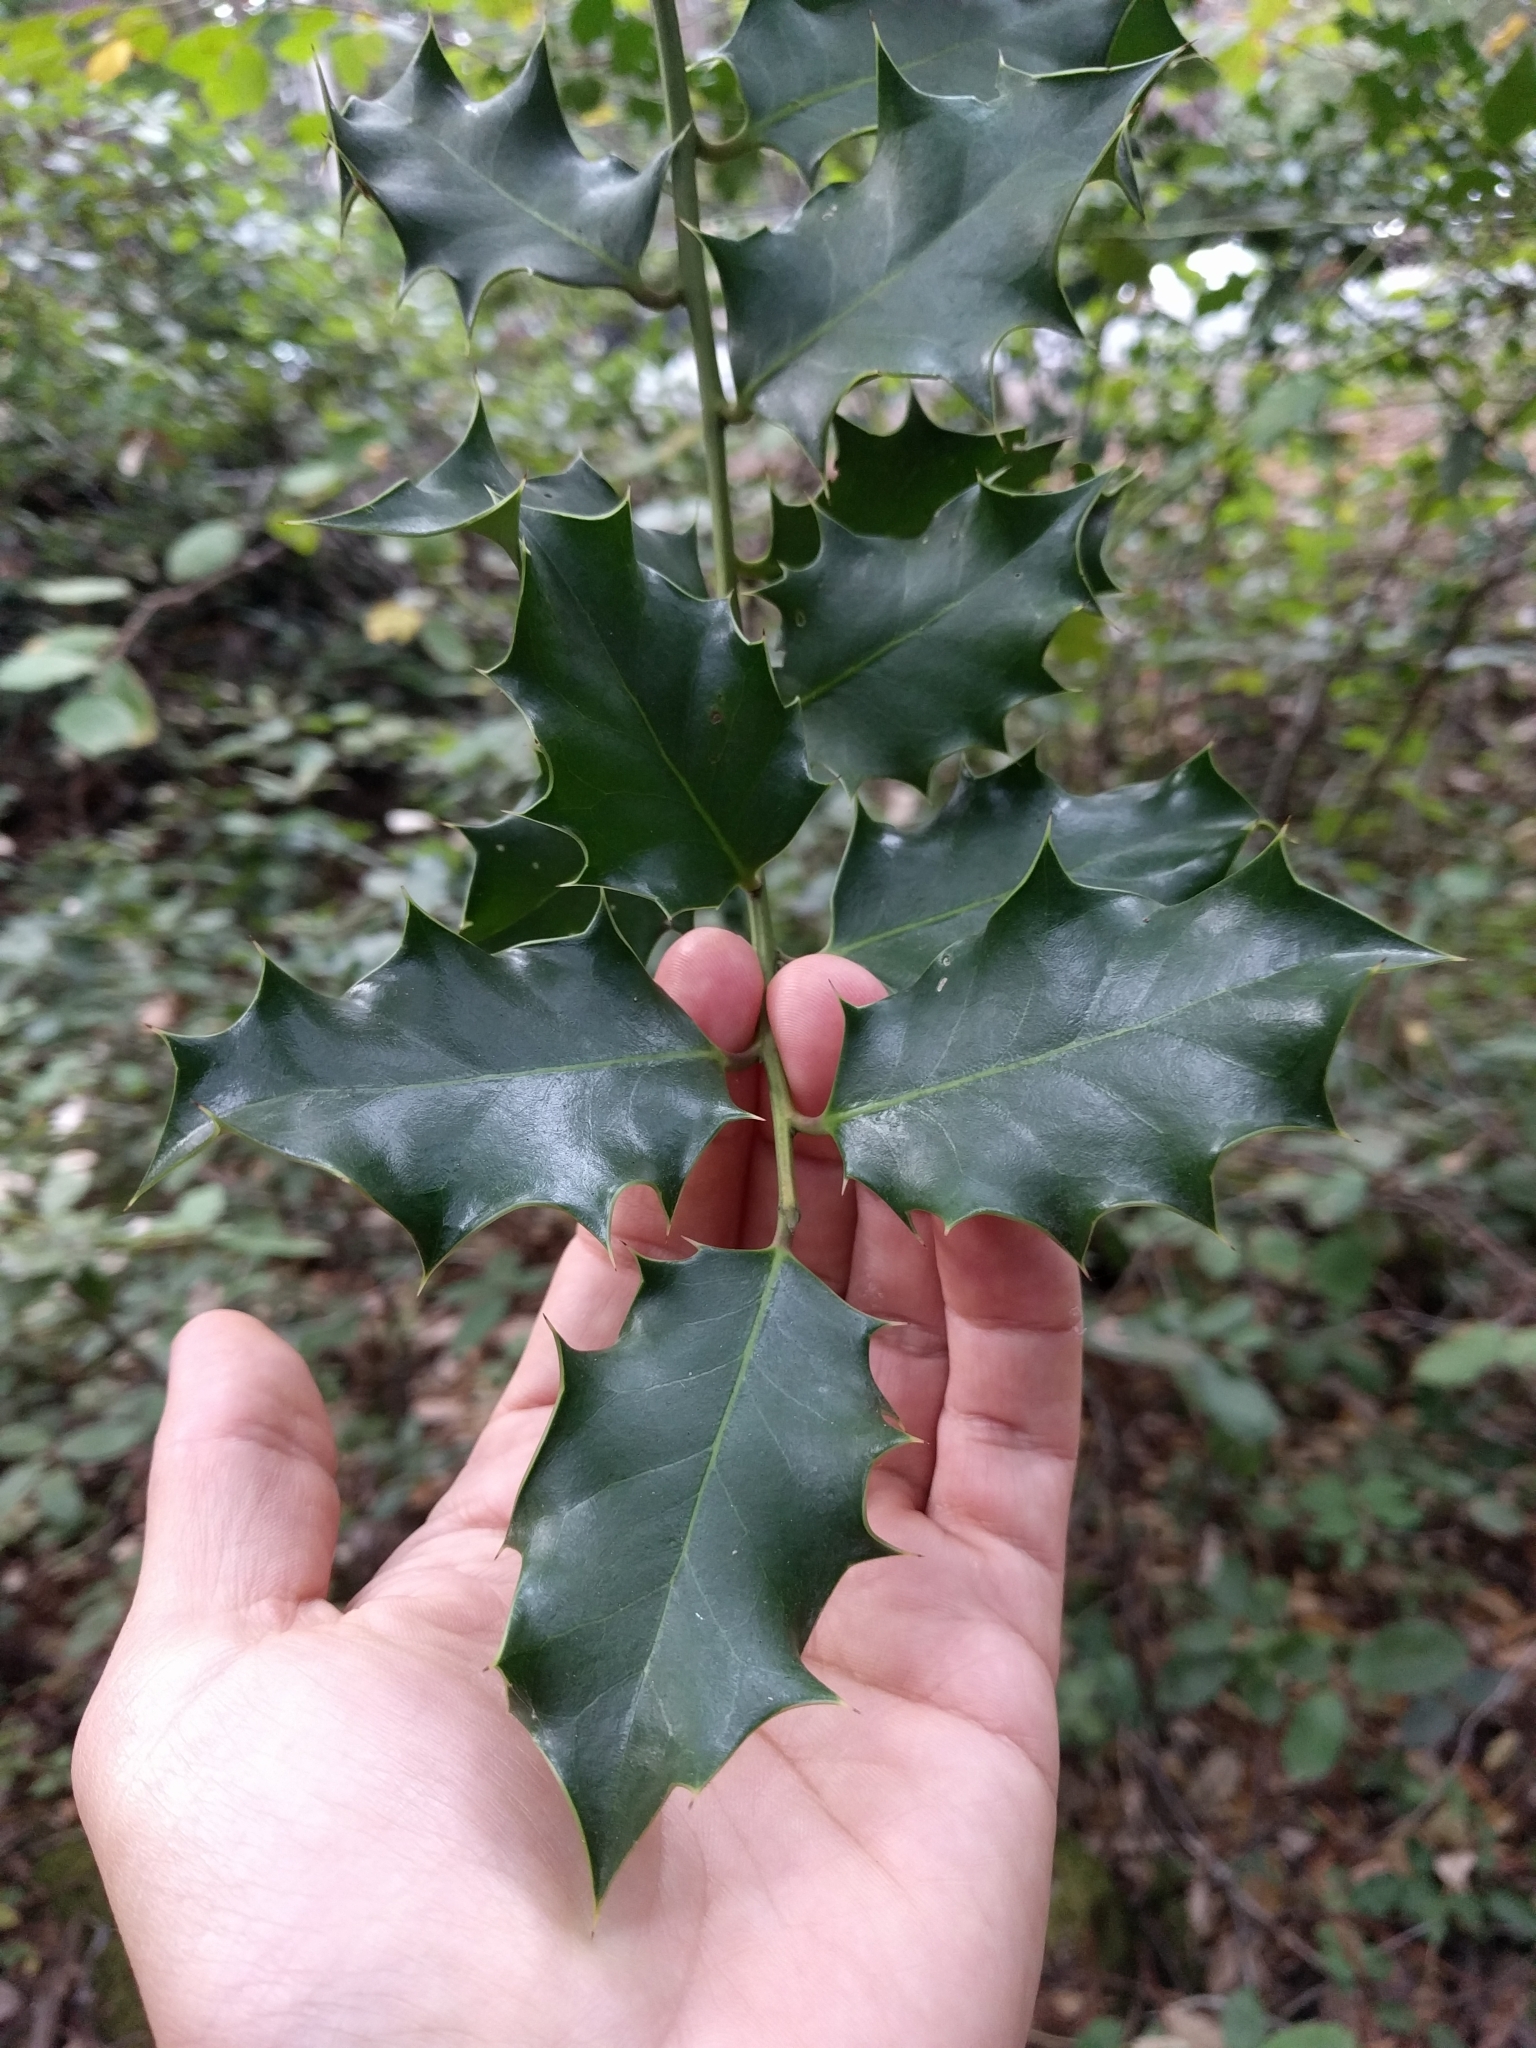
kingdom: Plantae
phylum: Tracheophyta
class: Magnoliopsida
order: Aquifoliales
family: Aquifoliaceae
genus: Ilex
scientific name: Ilex aquifolium
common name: English holly
